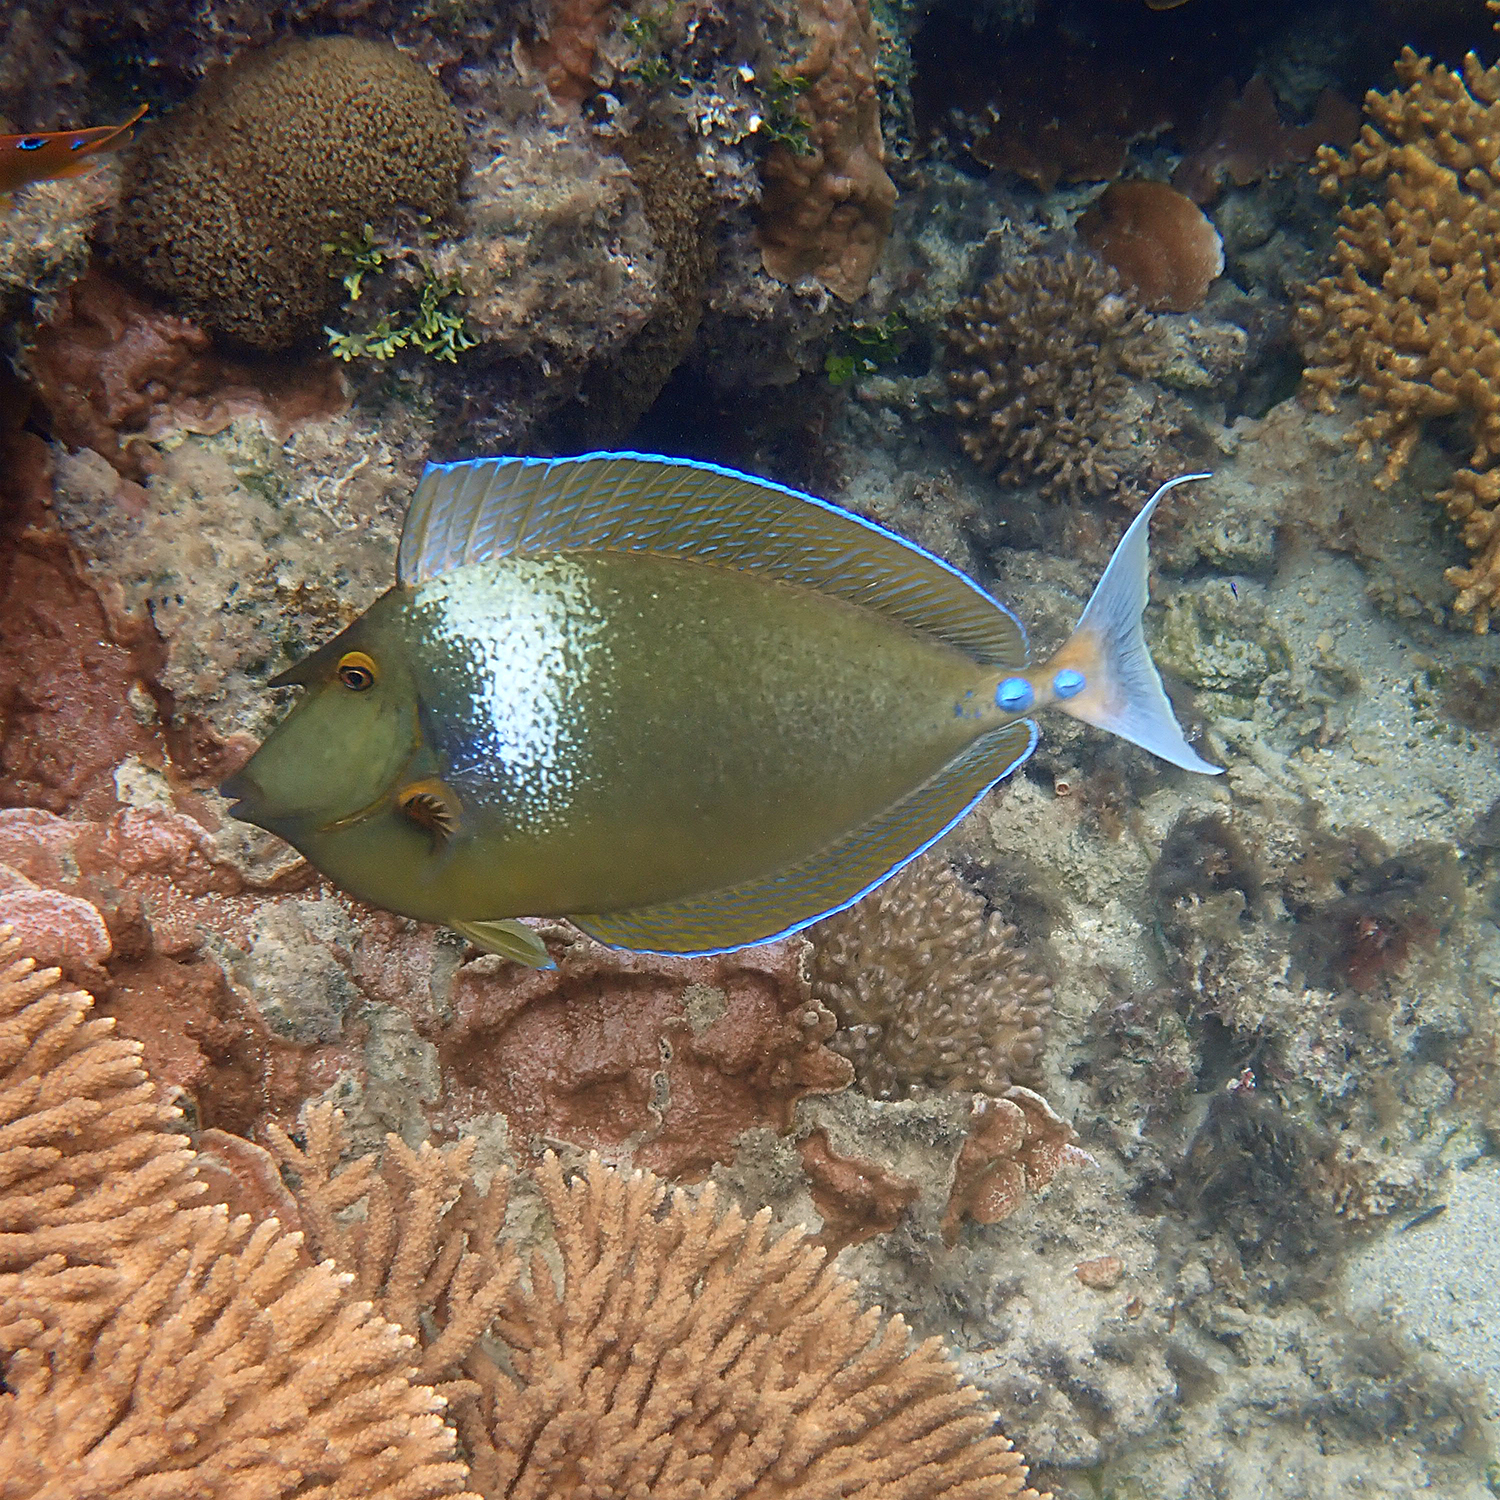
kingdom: Animalia
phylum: Chordata
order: Perciformes
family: Acanthuridae
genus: Naso
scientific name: Naso unicornis
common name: Bluespine unicornfish
